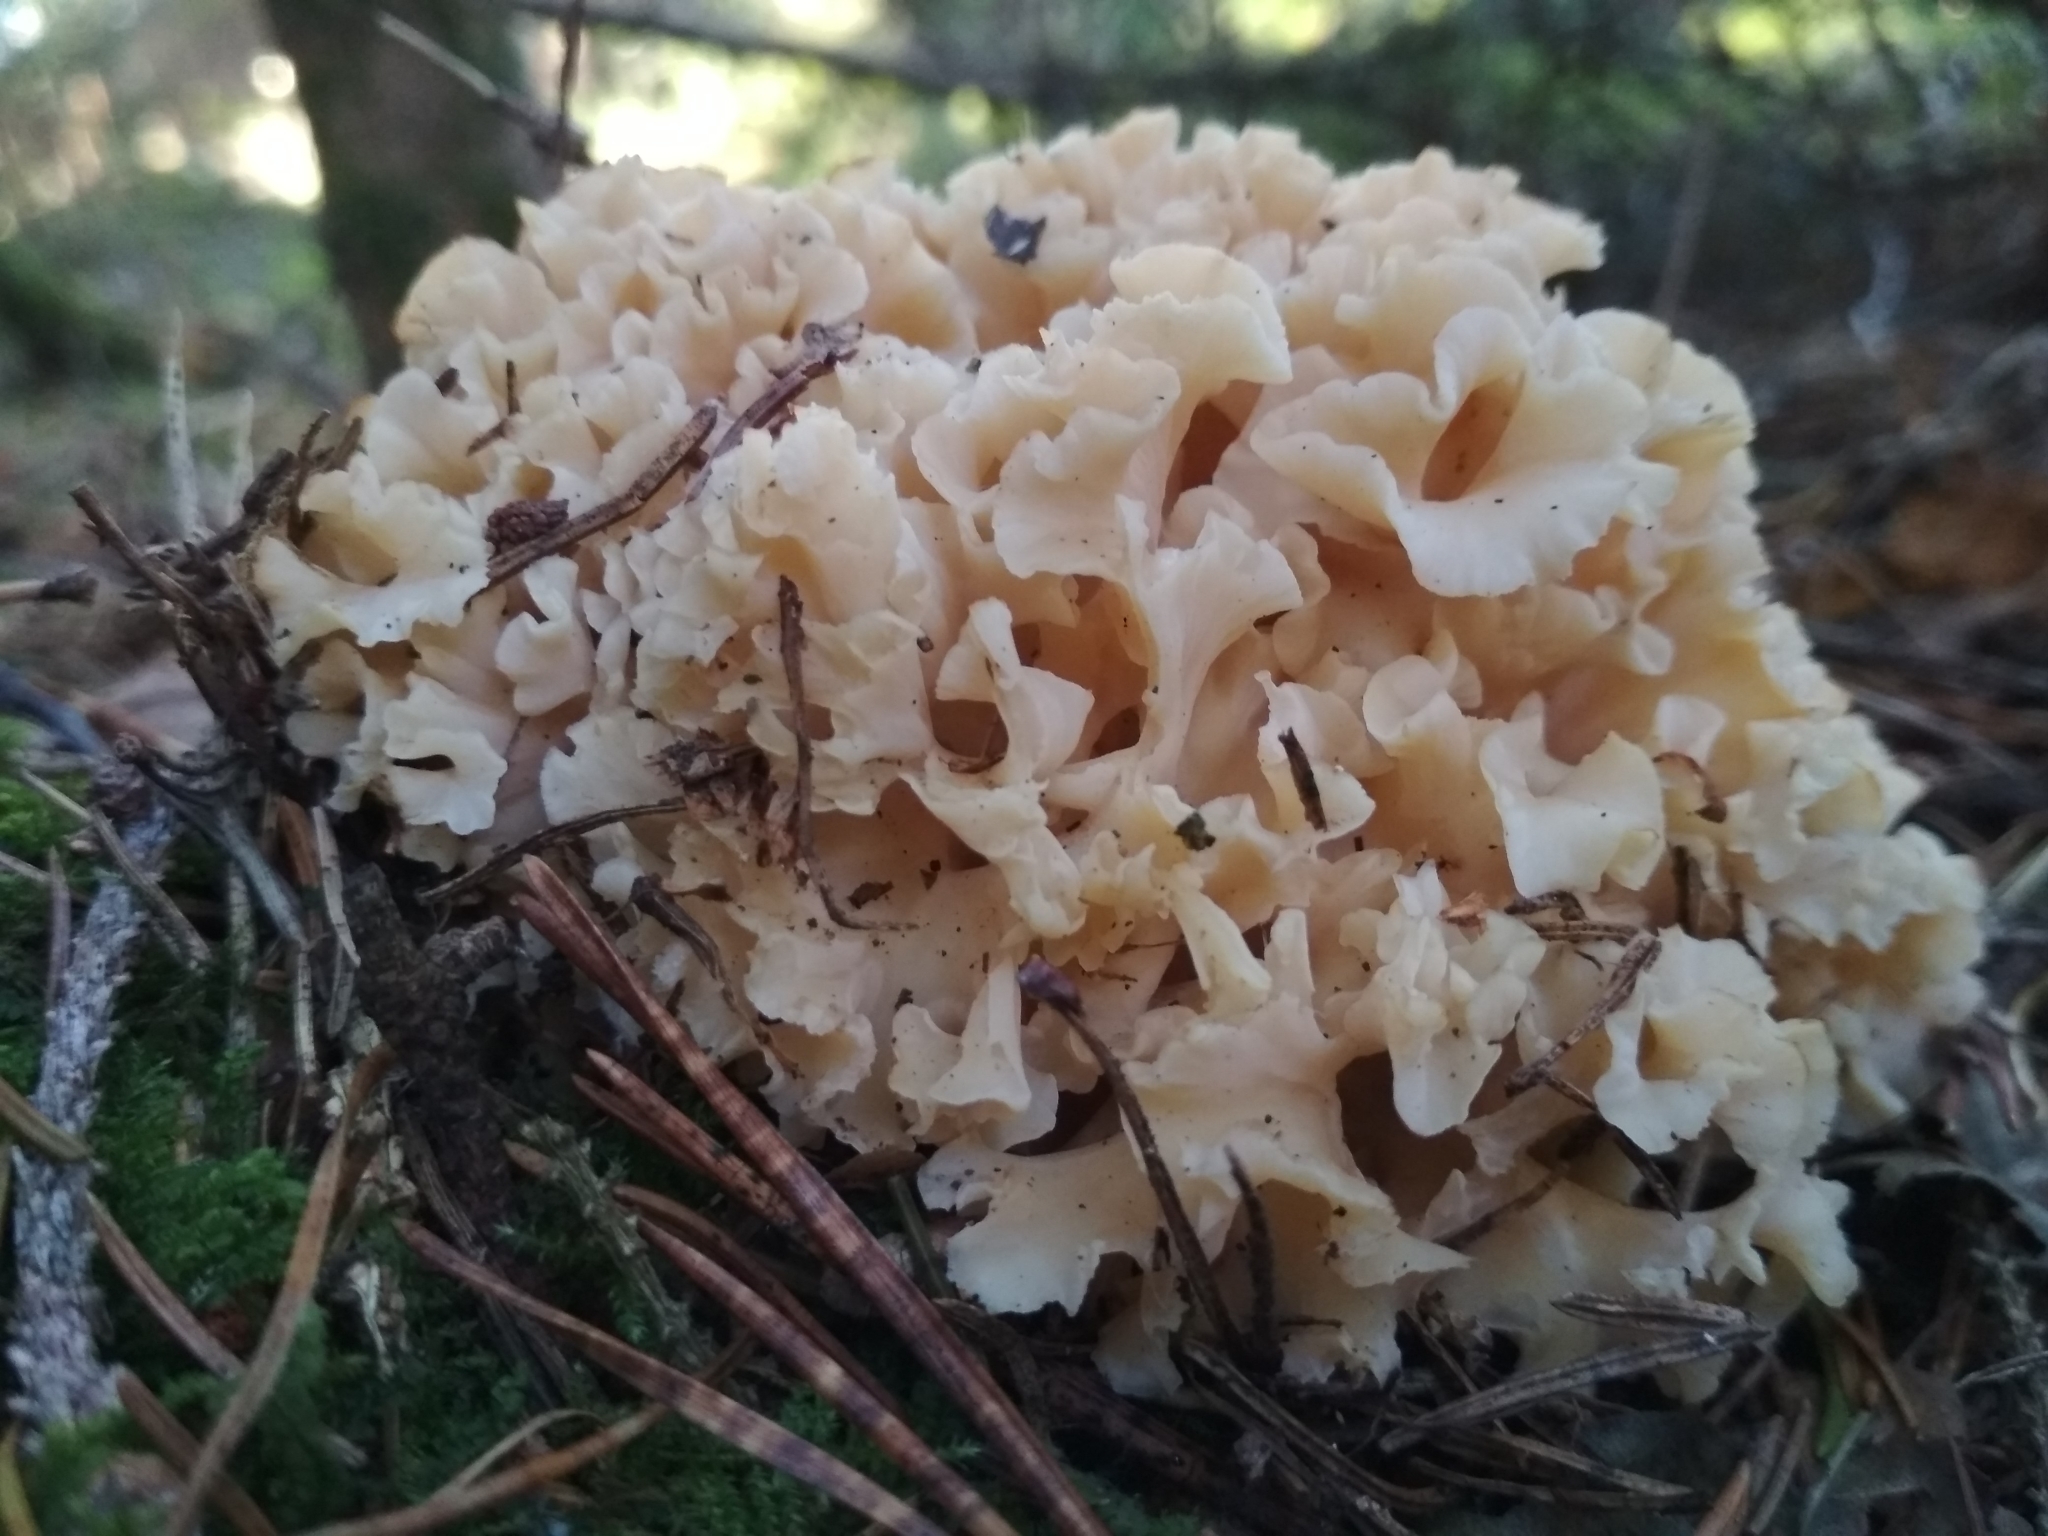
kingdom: Fungi
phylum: Basidiomycota
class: Agaricomycetes
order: Polyporales
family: Sparassidaceae
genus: Sparassis
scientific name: Sparassis crispa
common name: Brain fungus
